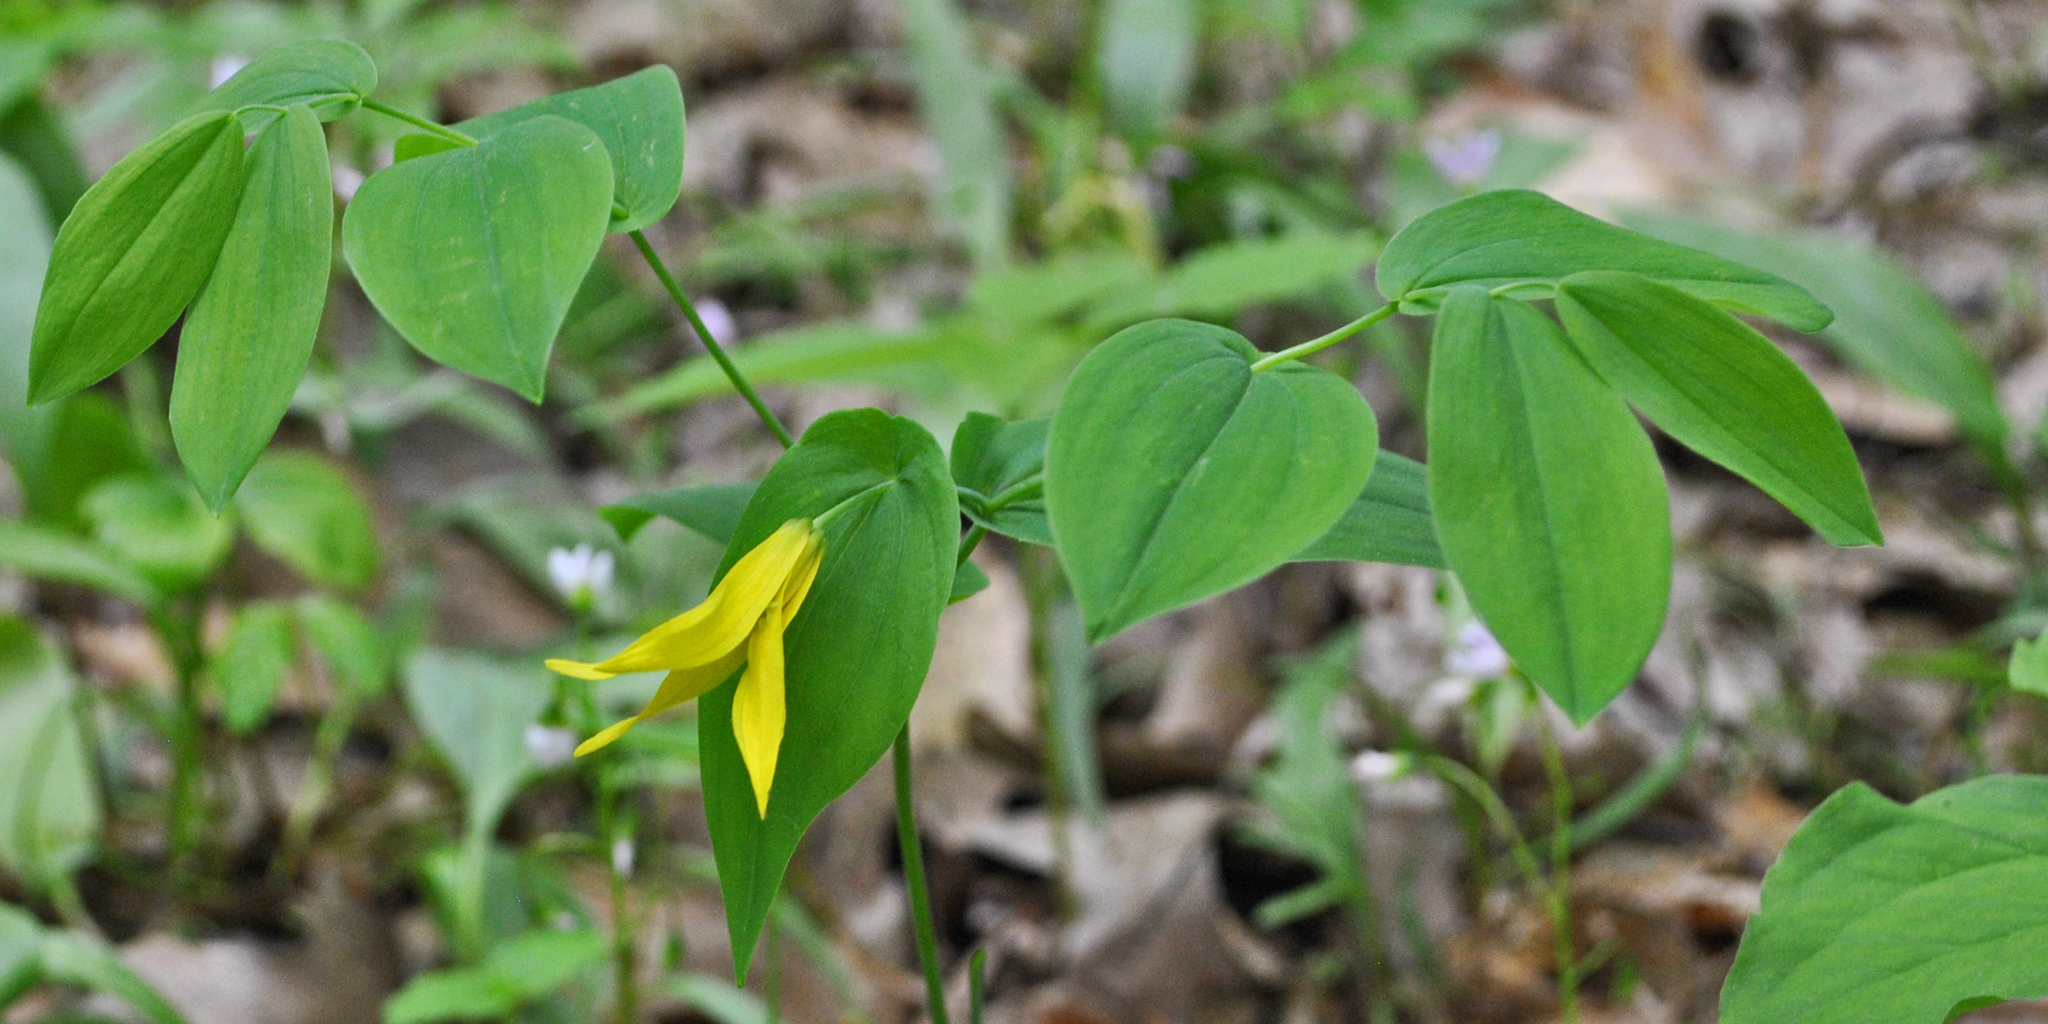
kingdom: Plantae
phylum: Tracheophyta
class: Liliopsida
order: Liliales
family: Colchicaceae
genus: Uvularia
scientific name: Uvularia grandiflora
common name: Bellwort
